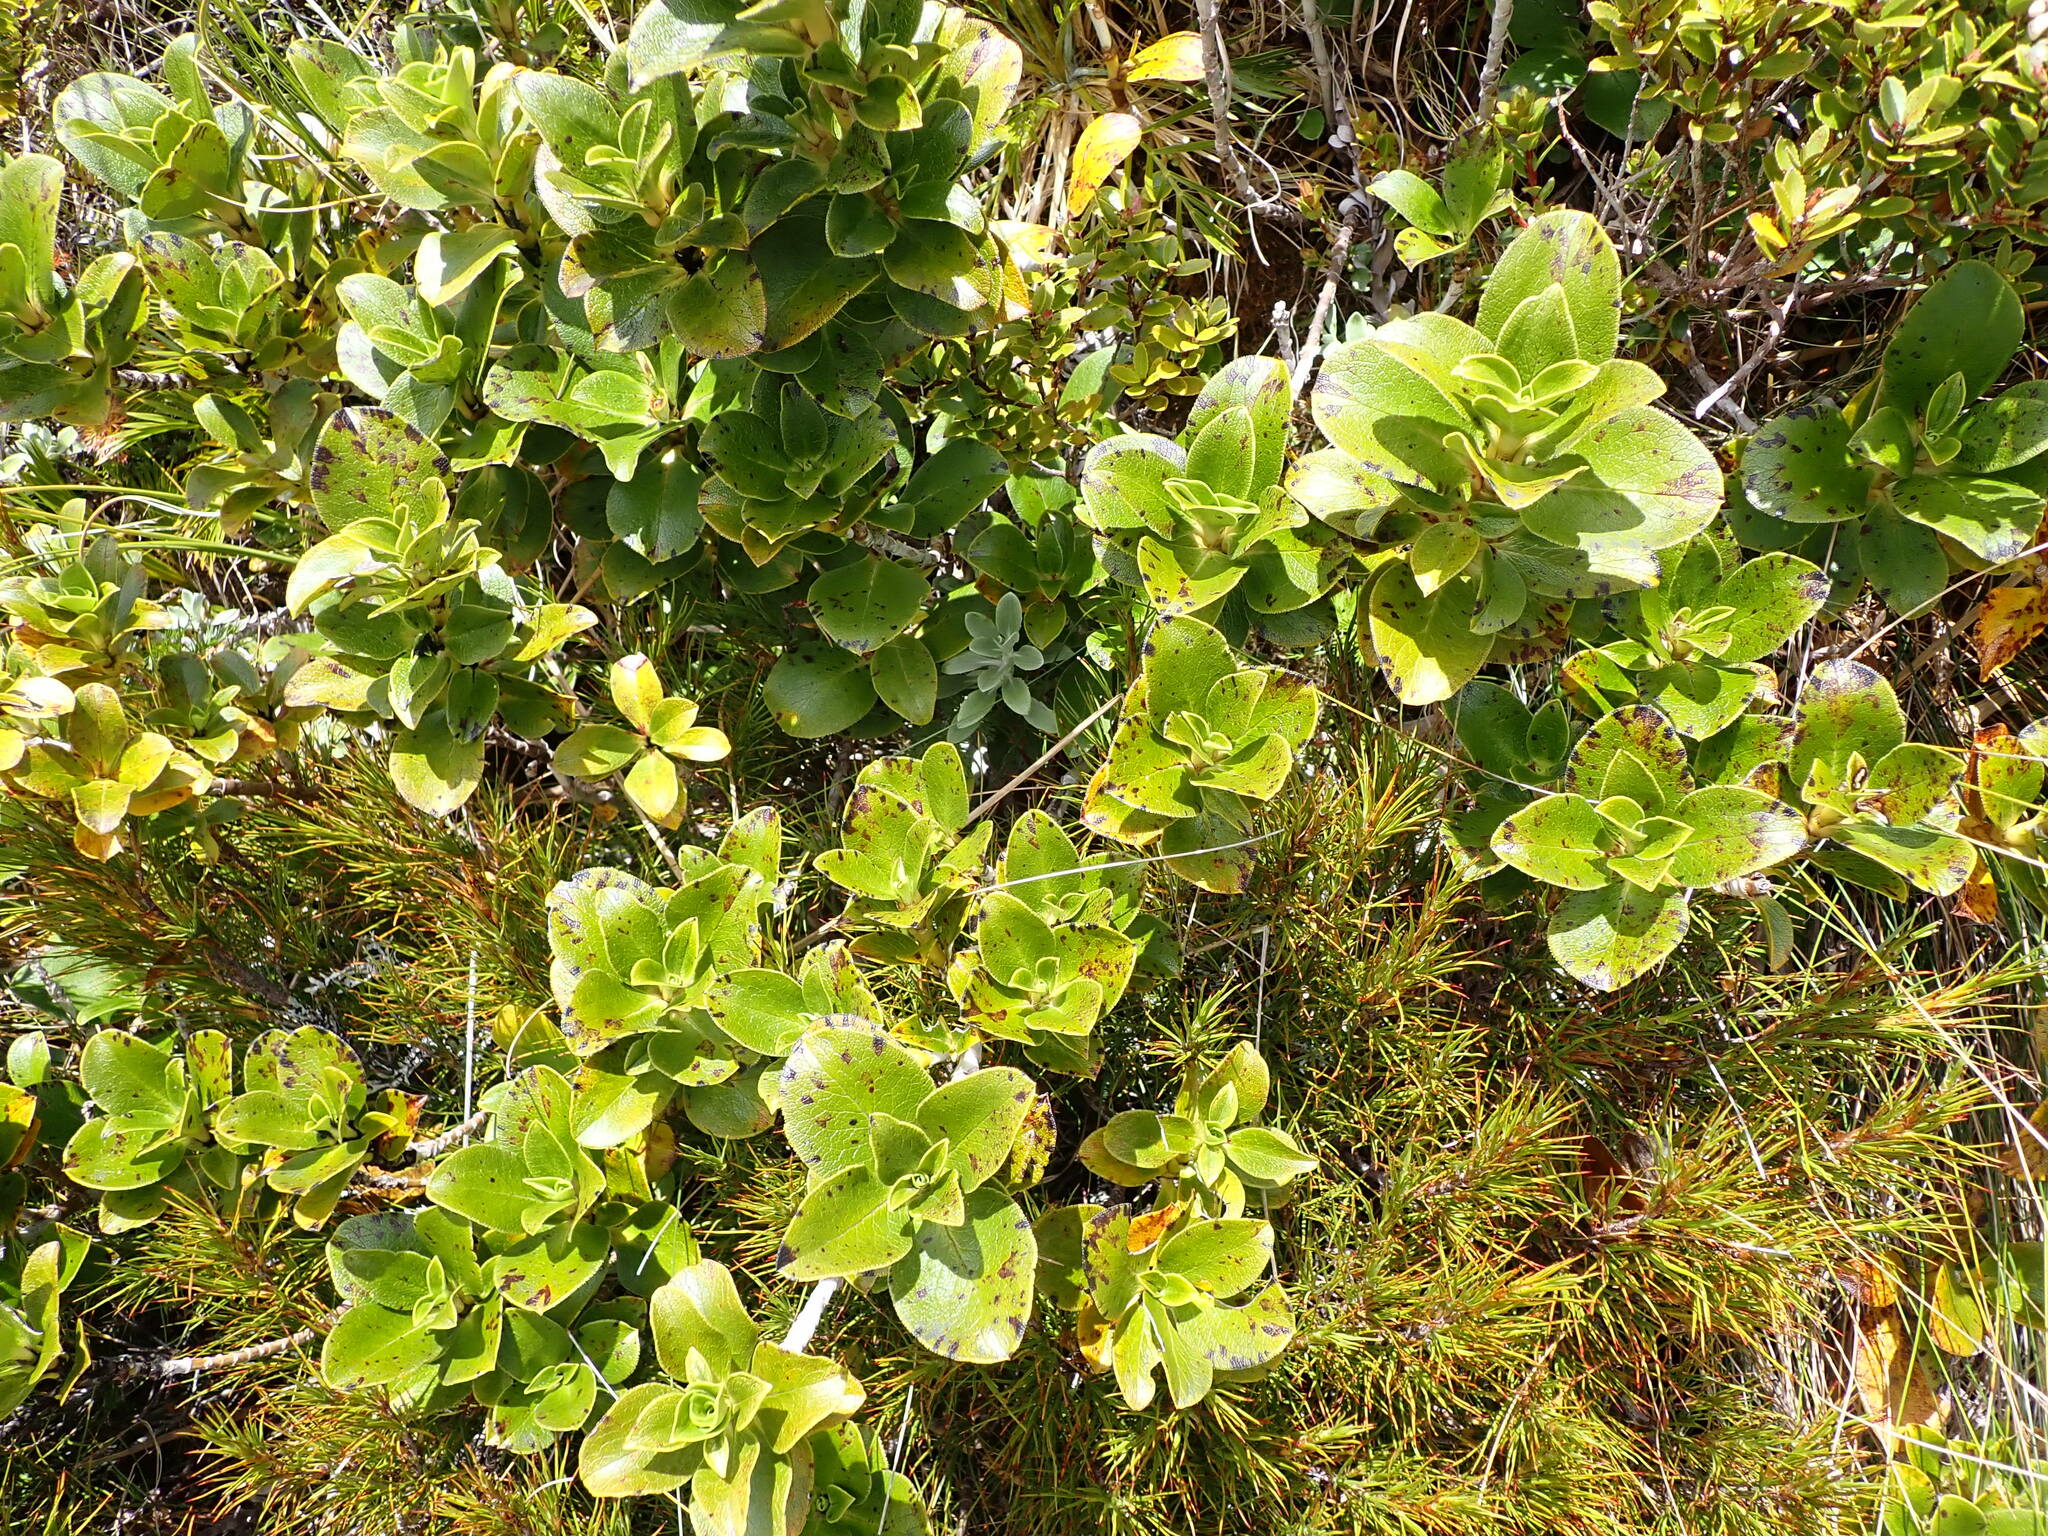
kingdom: Plantae
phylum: Tracheophyta
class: Magnoliopsida
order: Gentianales
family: Rubiaceae
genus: Coprosma
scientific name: Coprosma serrulata
